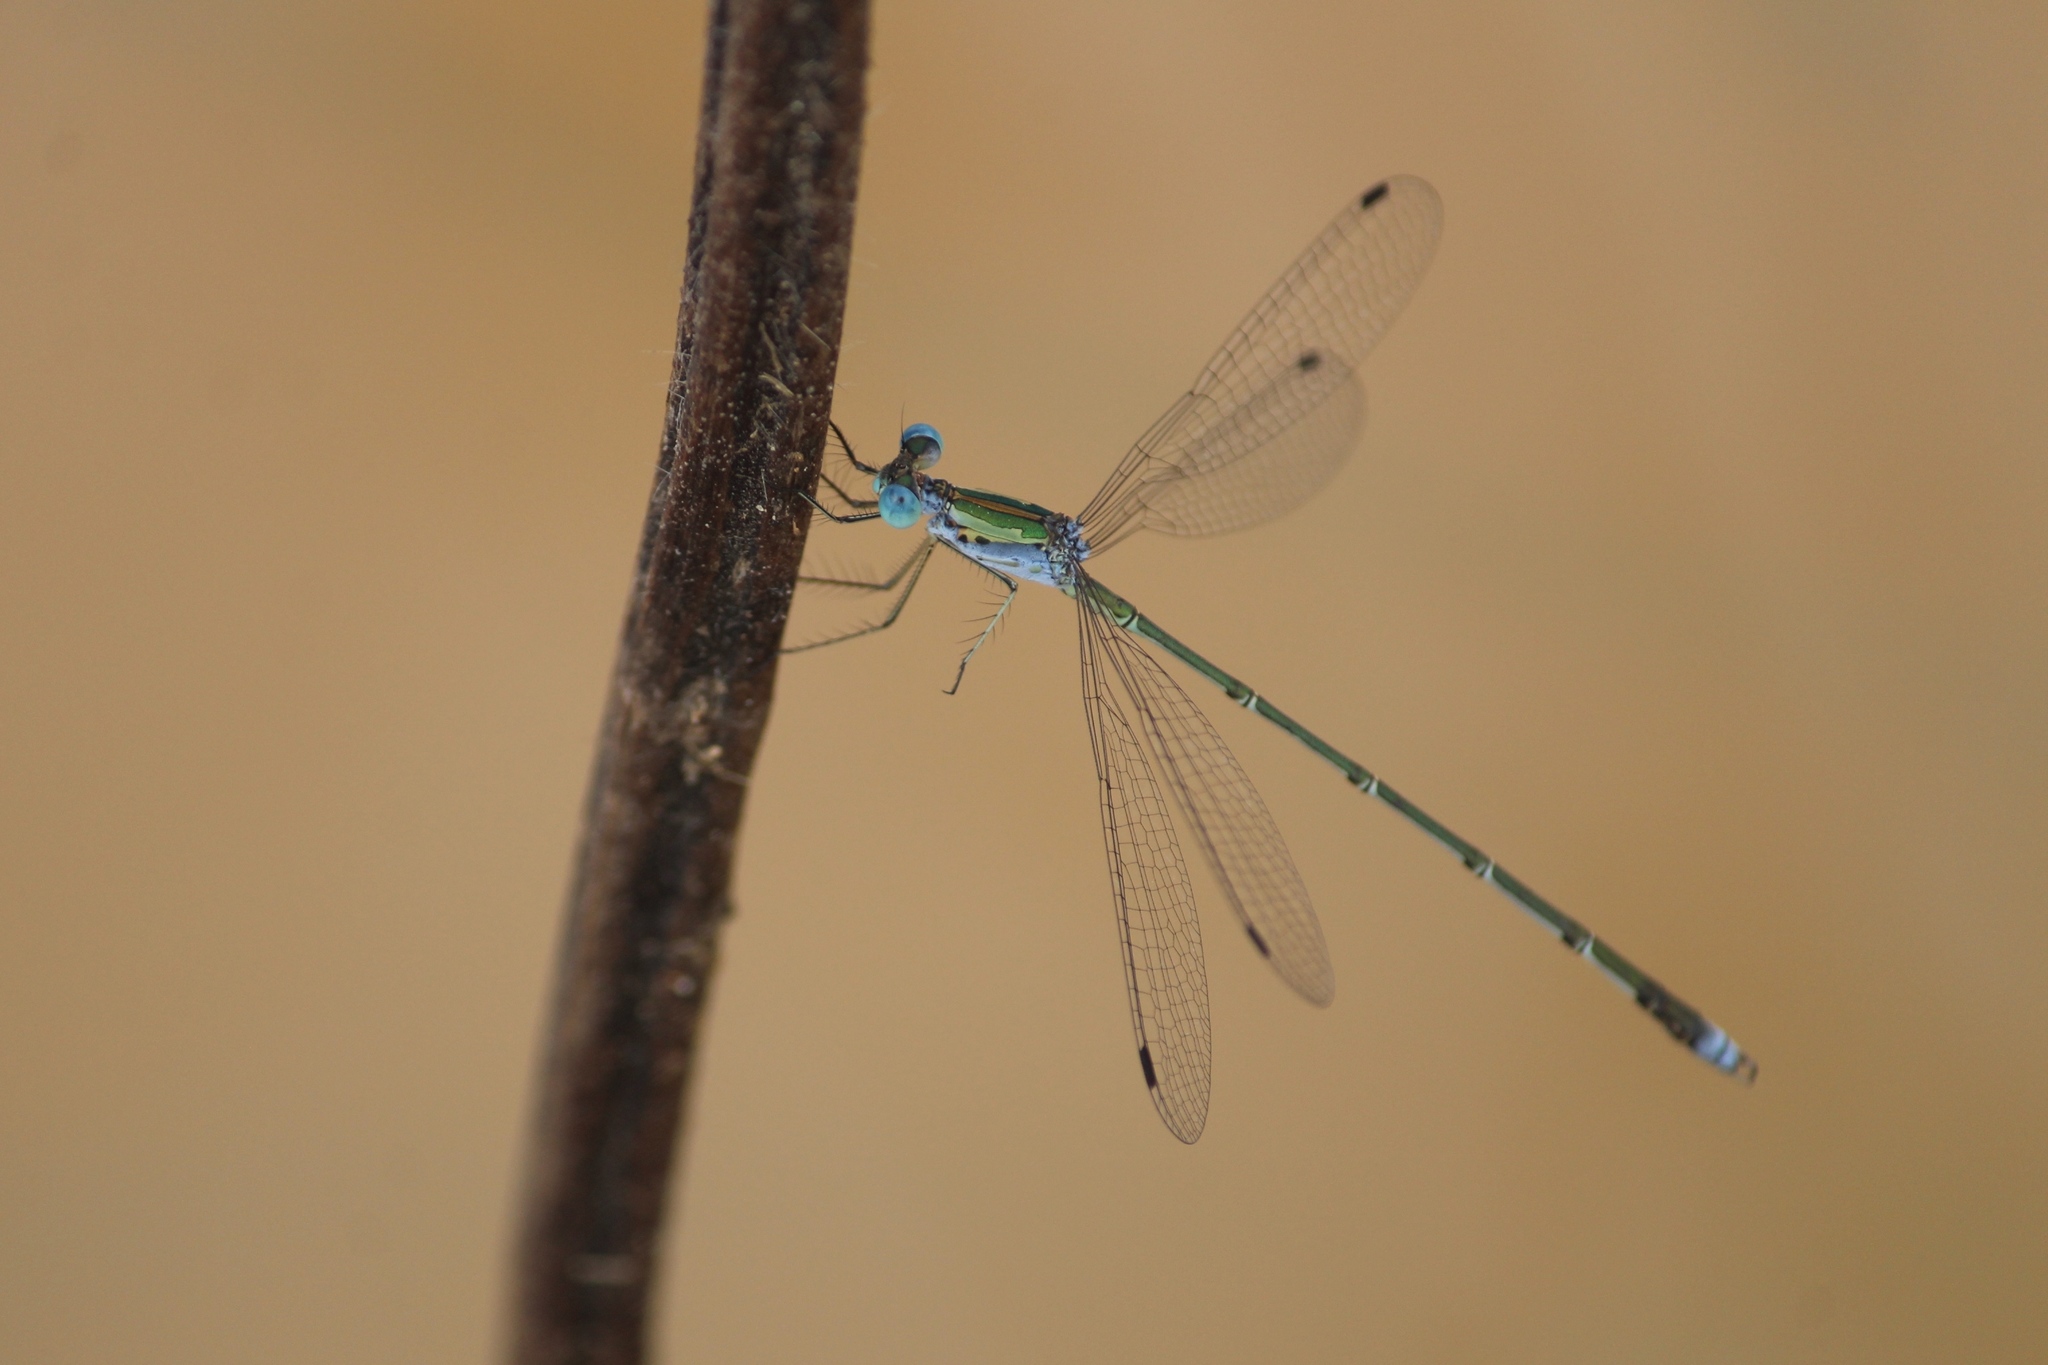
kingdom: Animalia
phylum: Arthropoda
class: Insecta
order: Odonata
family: Lestidae
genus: Lestes
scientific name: Lestes elatus
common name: Emerald spreadwing
